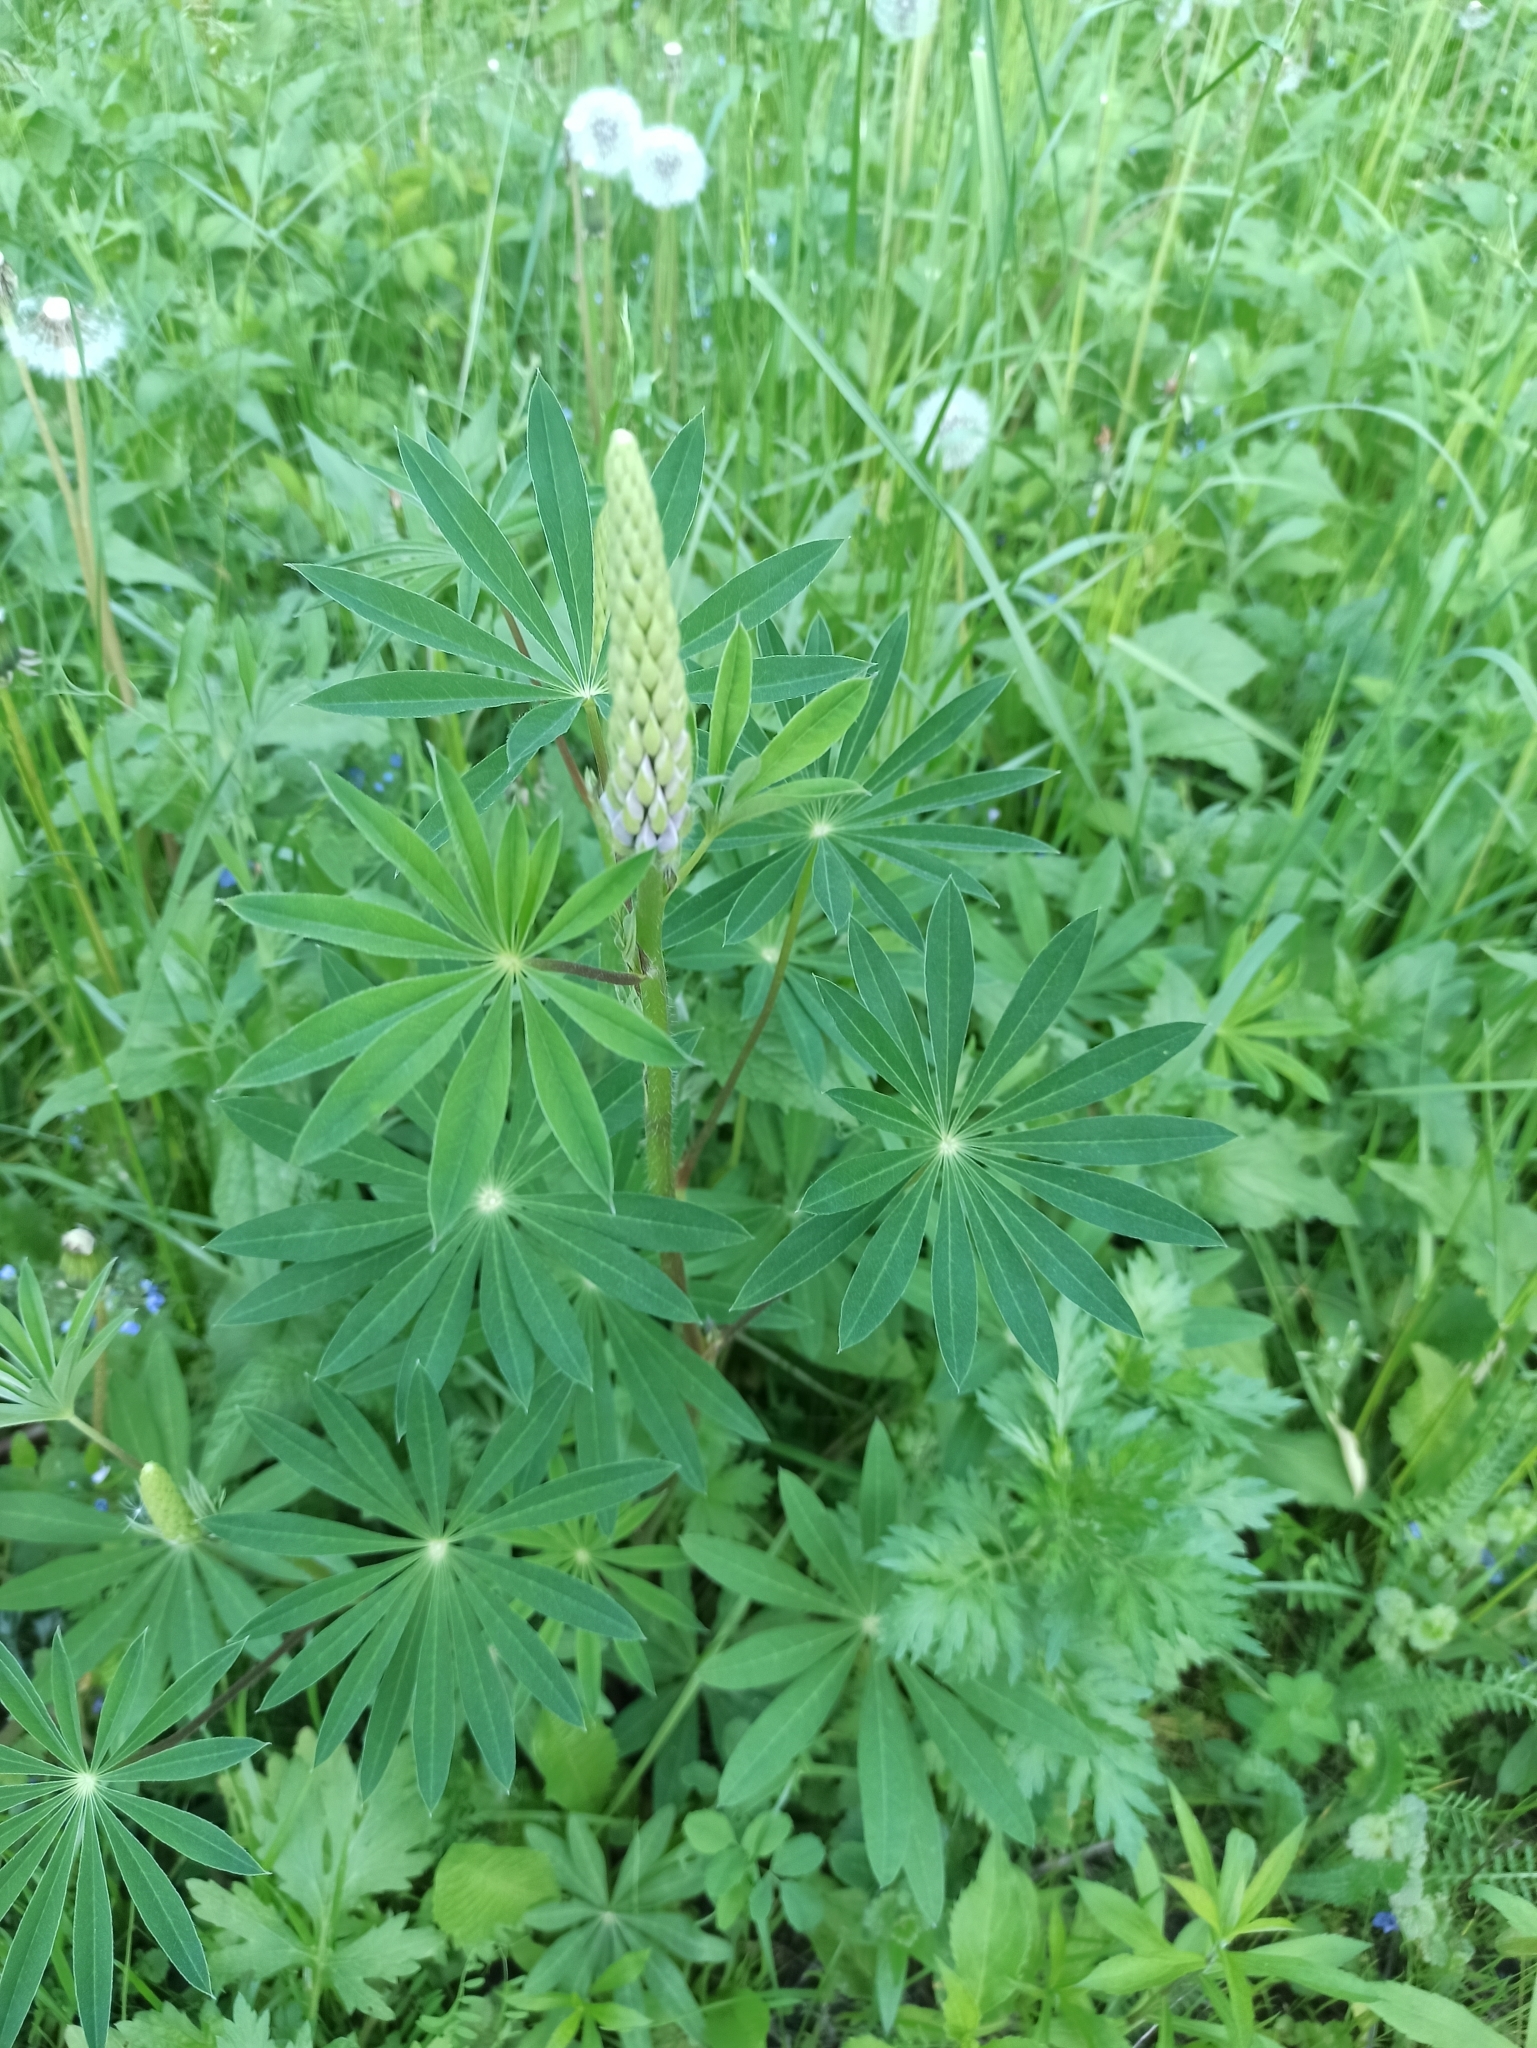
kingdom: Plantae
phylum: Tracheophyta
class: Magnoliopsida
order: Fabales
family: Fabaceae
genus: Lupinus
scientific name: Lupinus polyphyllus
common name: Garden lupin
